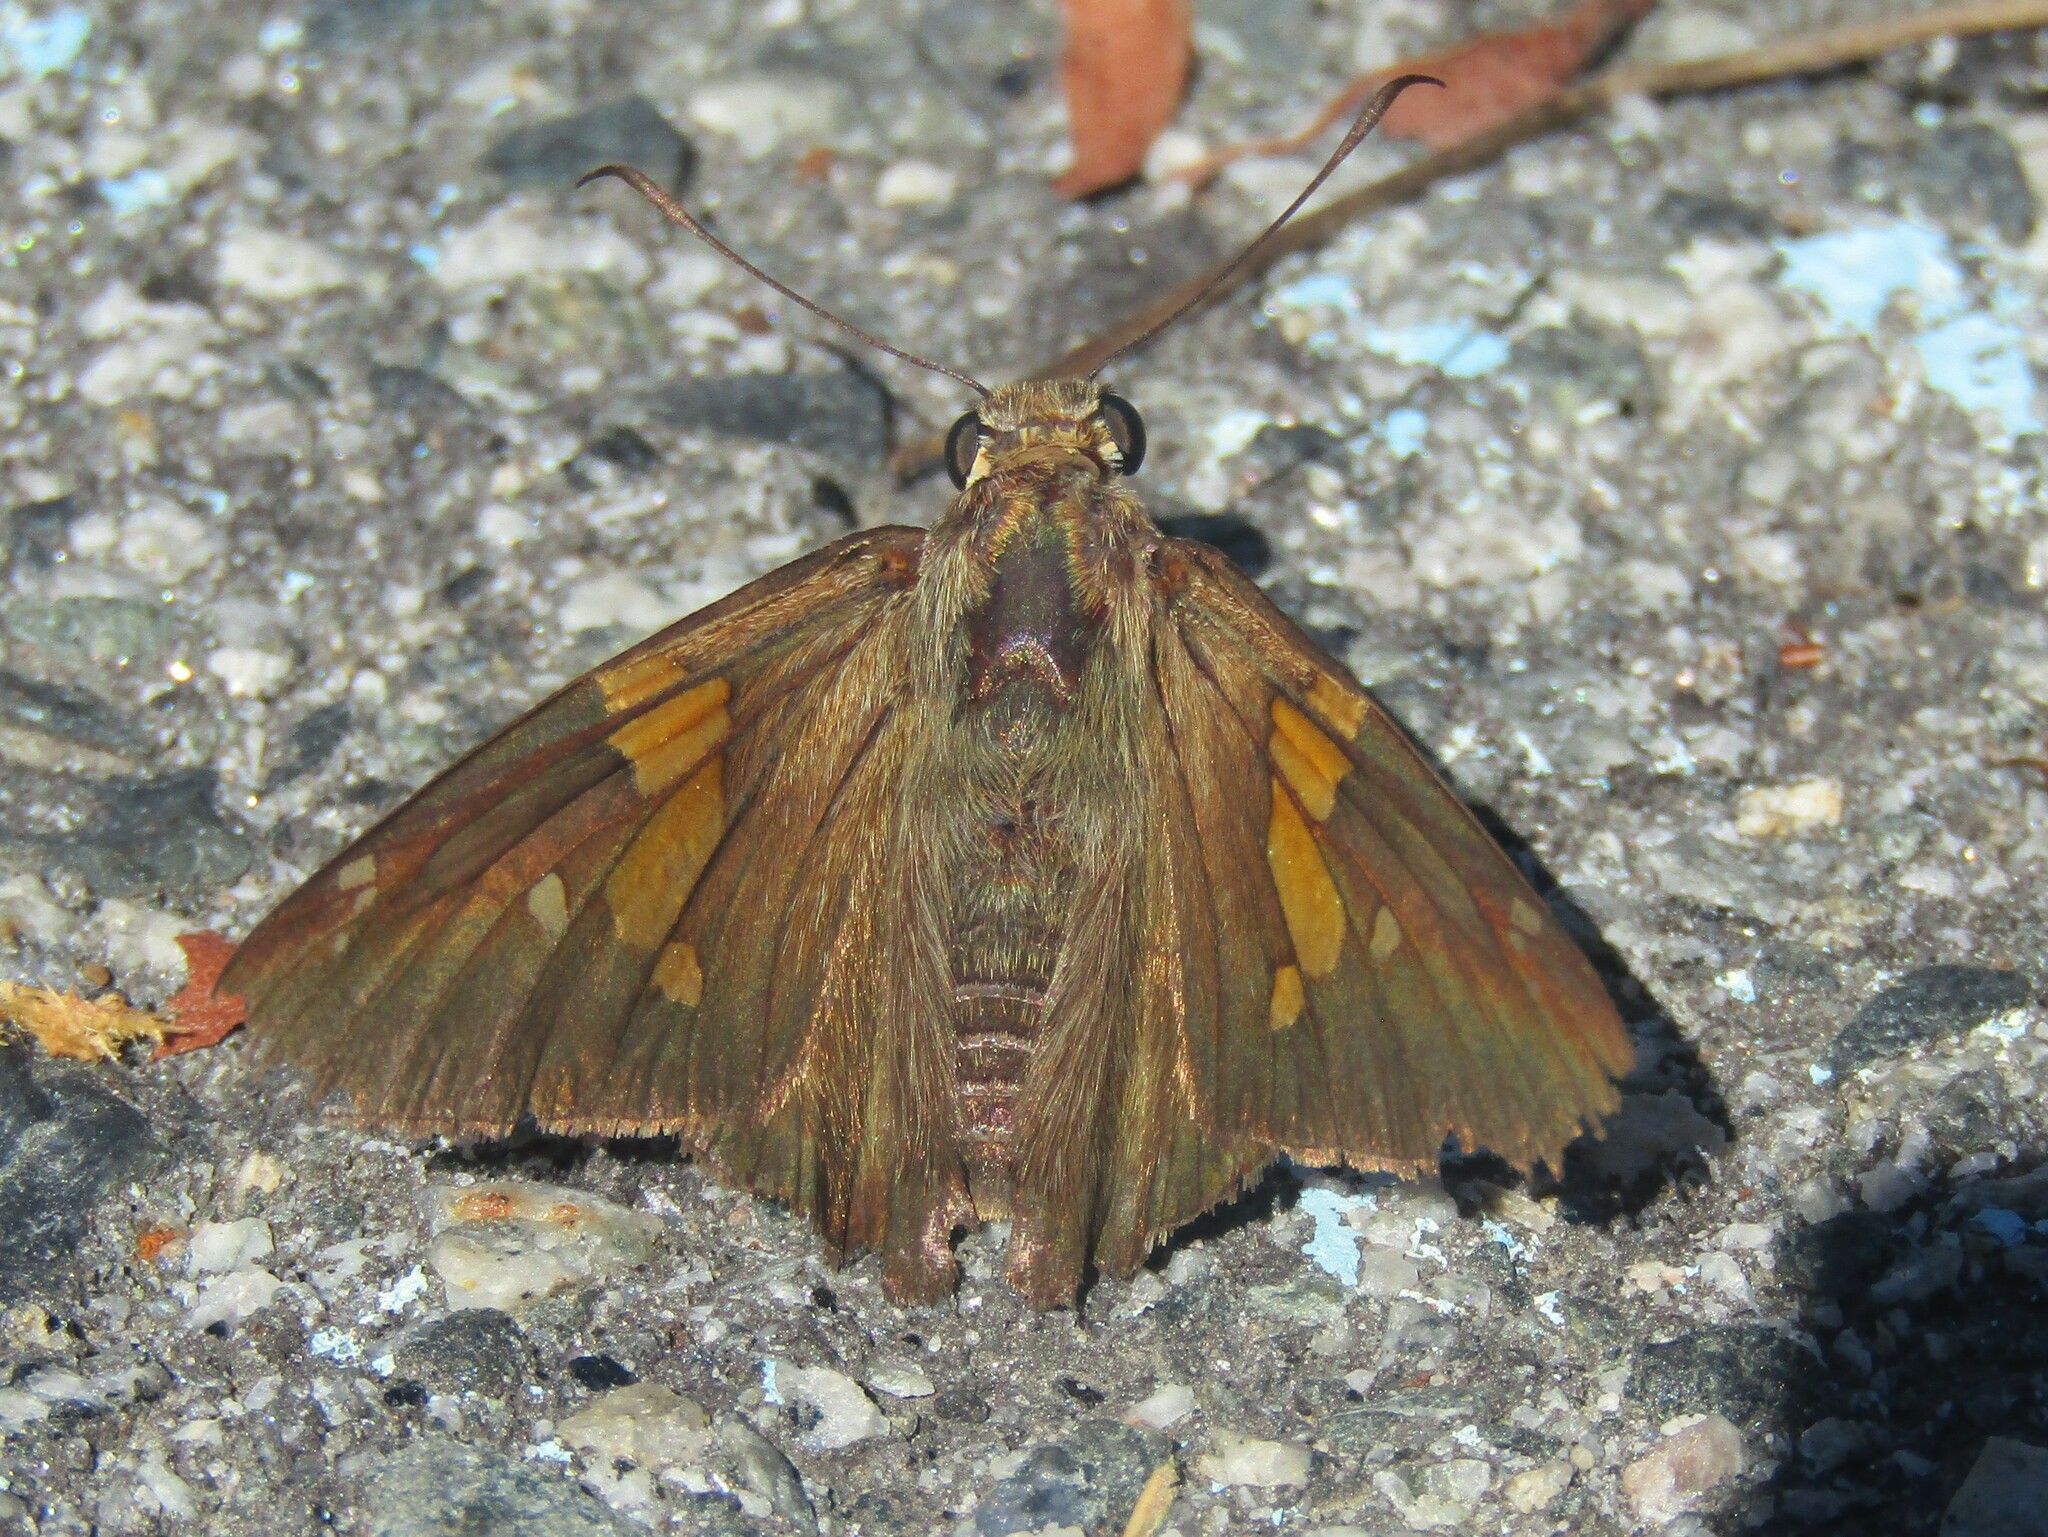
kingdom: Animalia
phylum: Arthropoda
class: Insecta
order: Lepidoptera
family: Hesperiidae
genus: Epargyreus
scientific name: Epargyreus clarus
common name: Silver-spotted skipper
